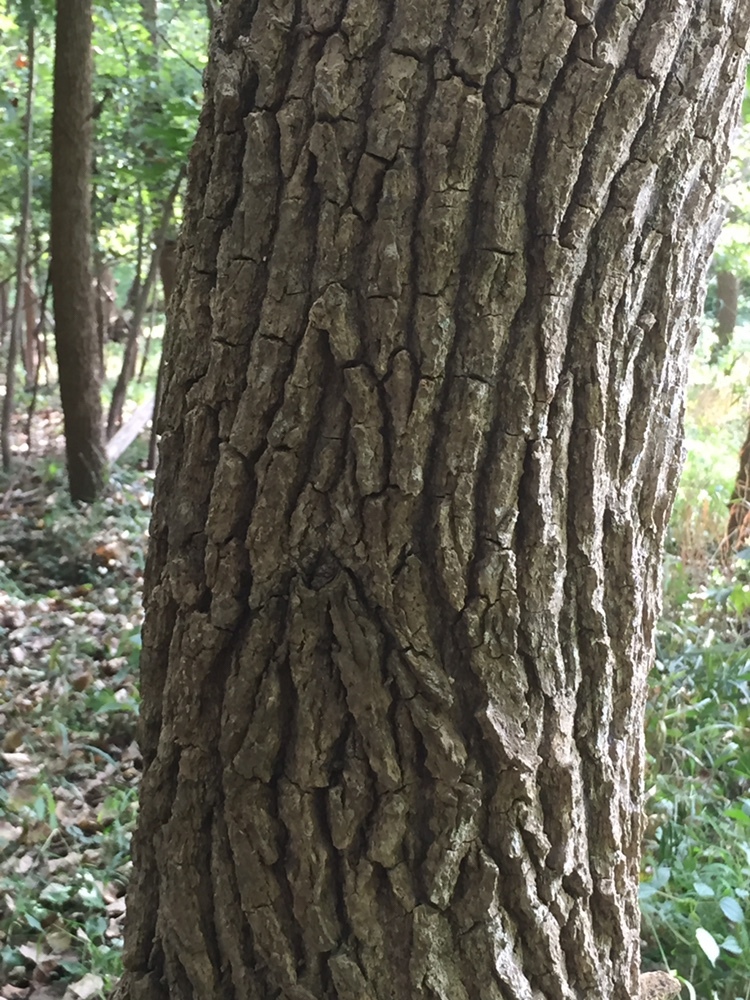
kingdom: Plantae
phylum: Tracheophyta
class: Magnoliopsida
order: Malpighiales
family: Salicaceae
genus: Populus
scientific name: Populus deltoides
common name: Eastern cottonwood
